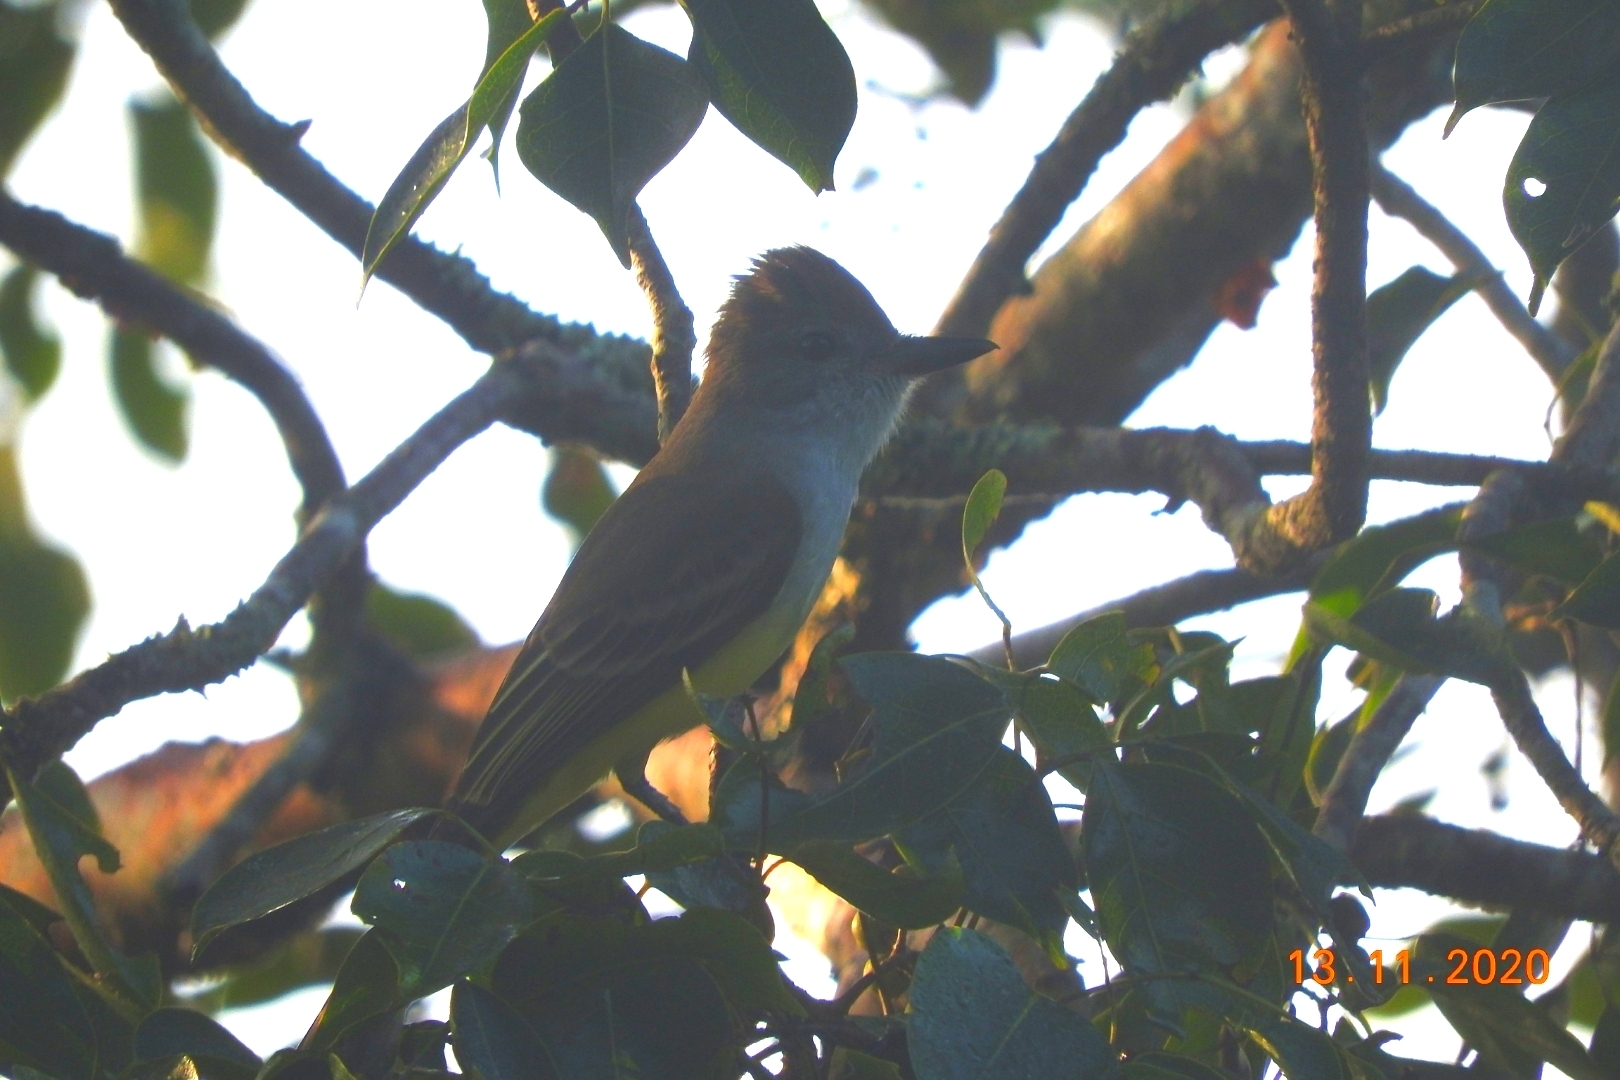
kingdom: Animalia
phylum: Chordata
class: Aves
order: Passeriformes
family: Tyrannidae
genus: Myiarchus
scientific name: Myiarchus tuberculifer
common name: Dusky-capped flycatcher
